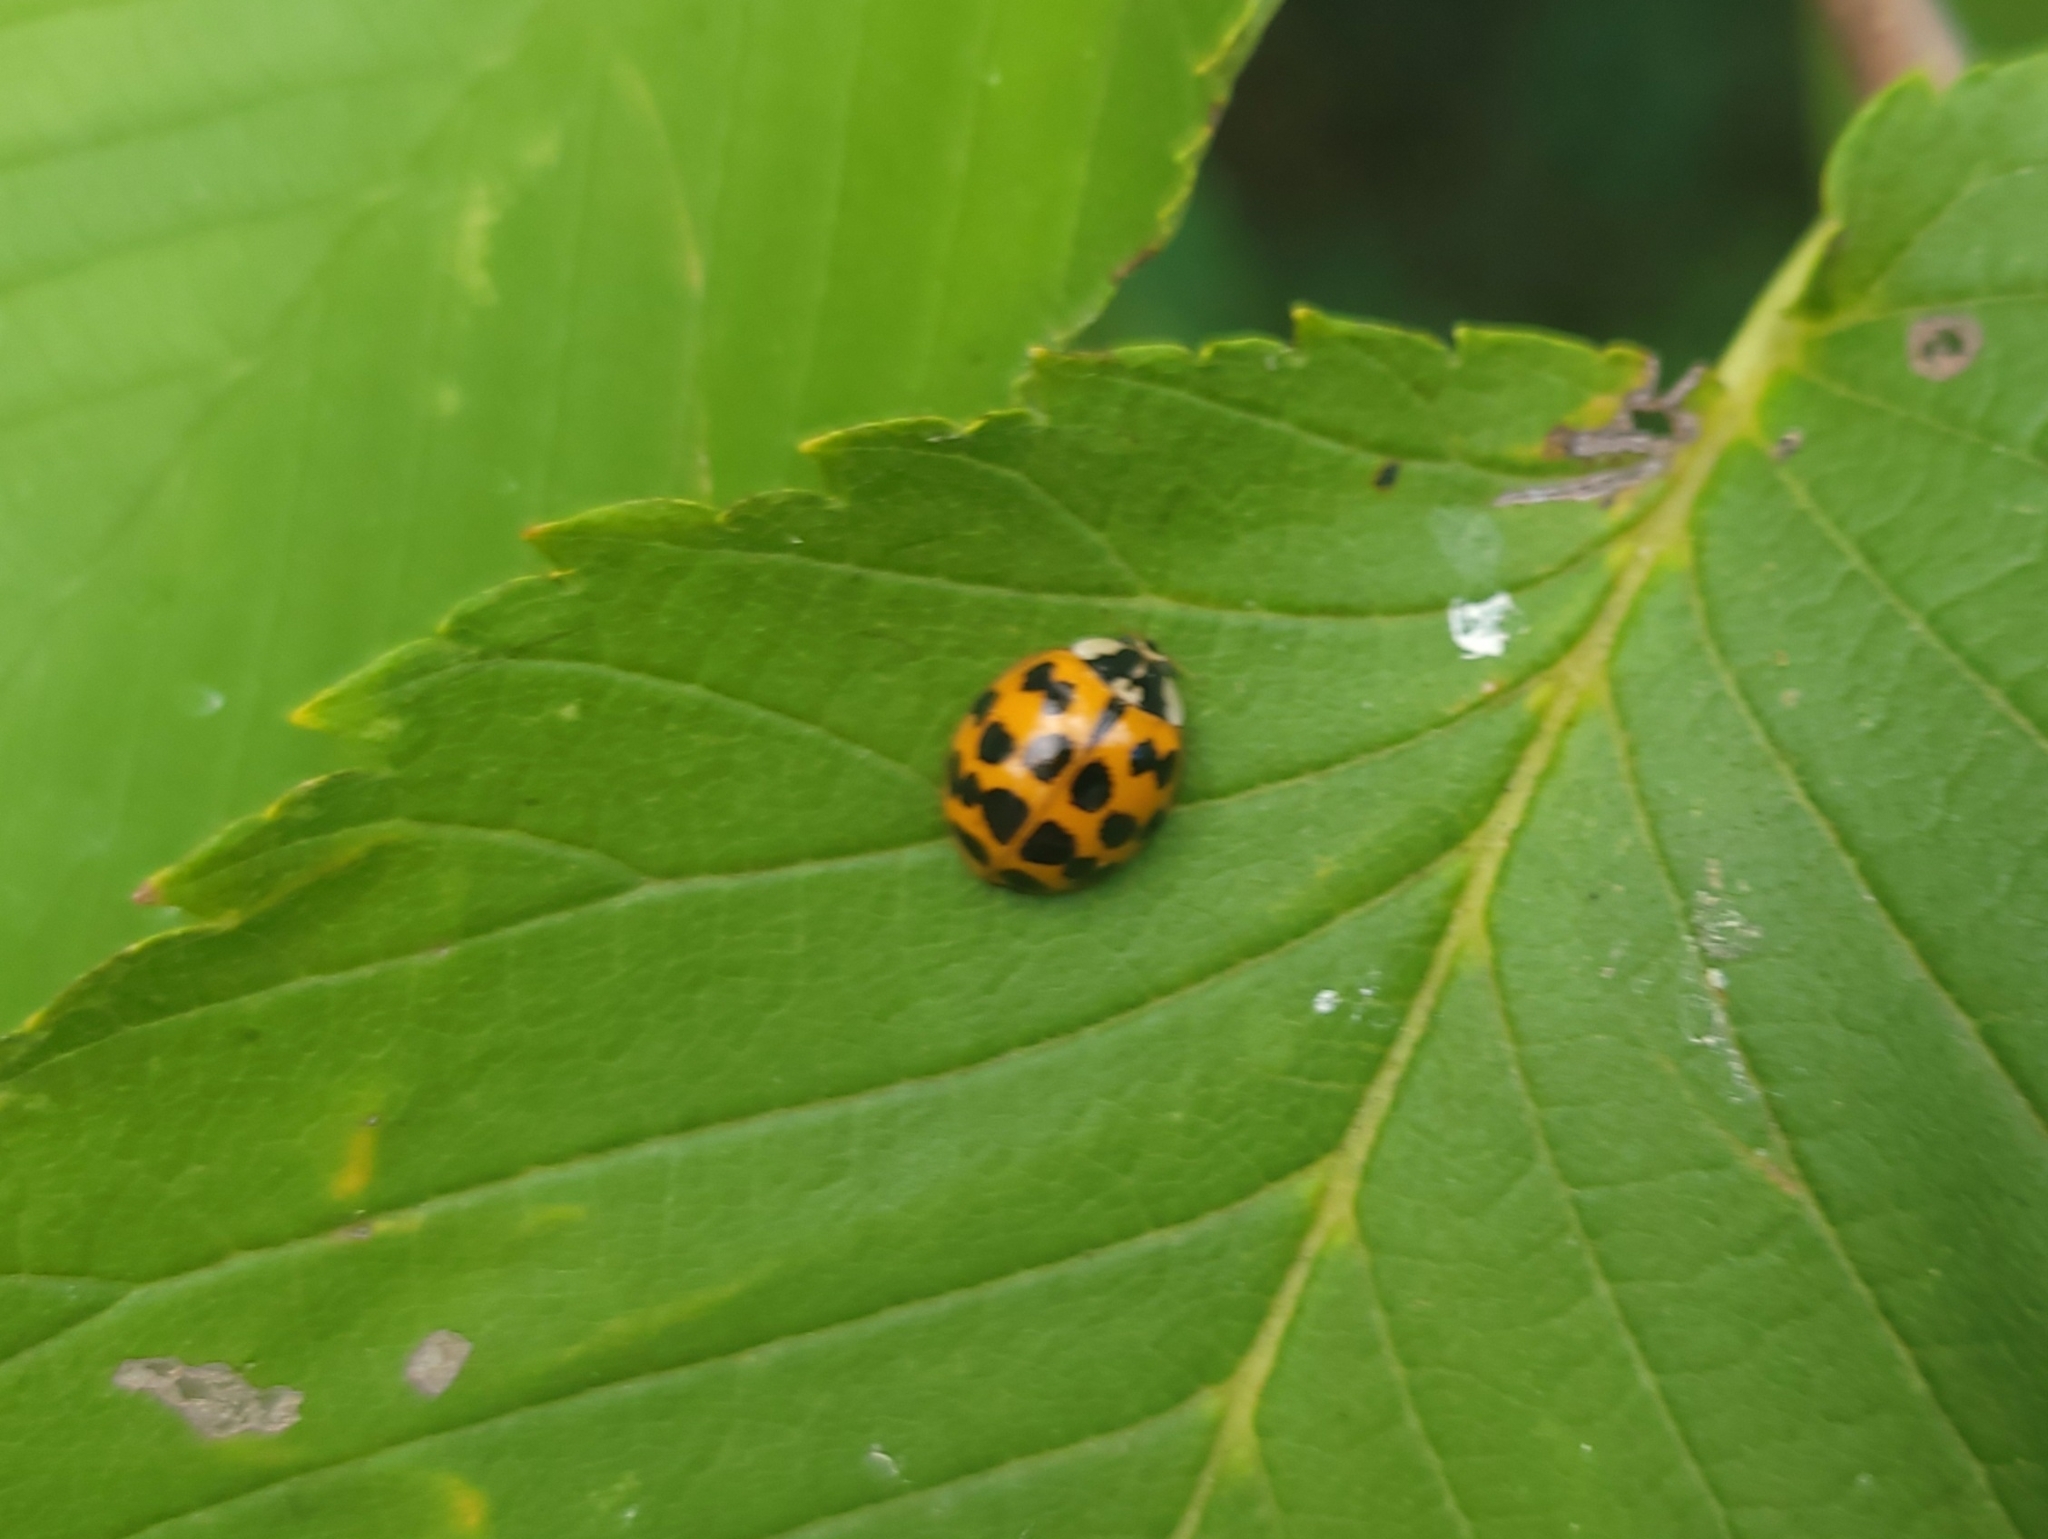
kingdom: Animalia
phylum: Arthropoda
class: Insecta
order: Coleoptera
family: Coccinellidae
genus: Harmonia
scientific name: Harmonia axyridis
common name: Harlequin ladybird
